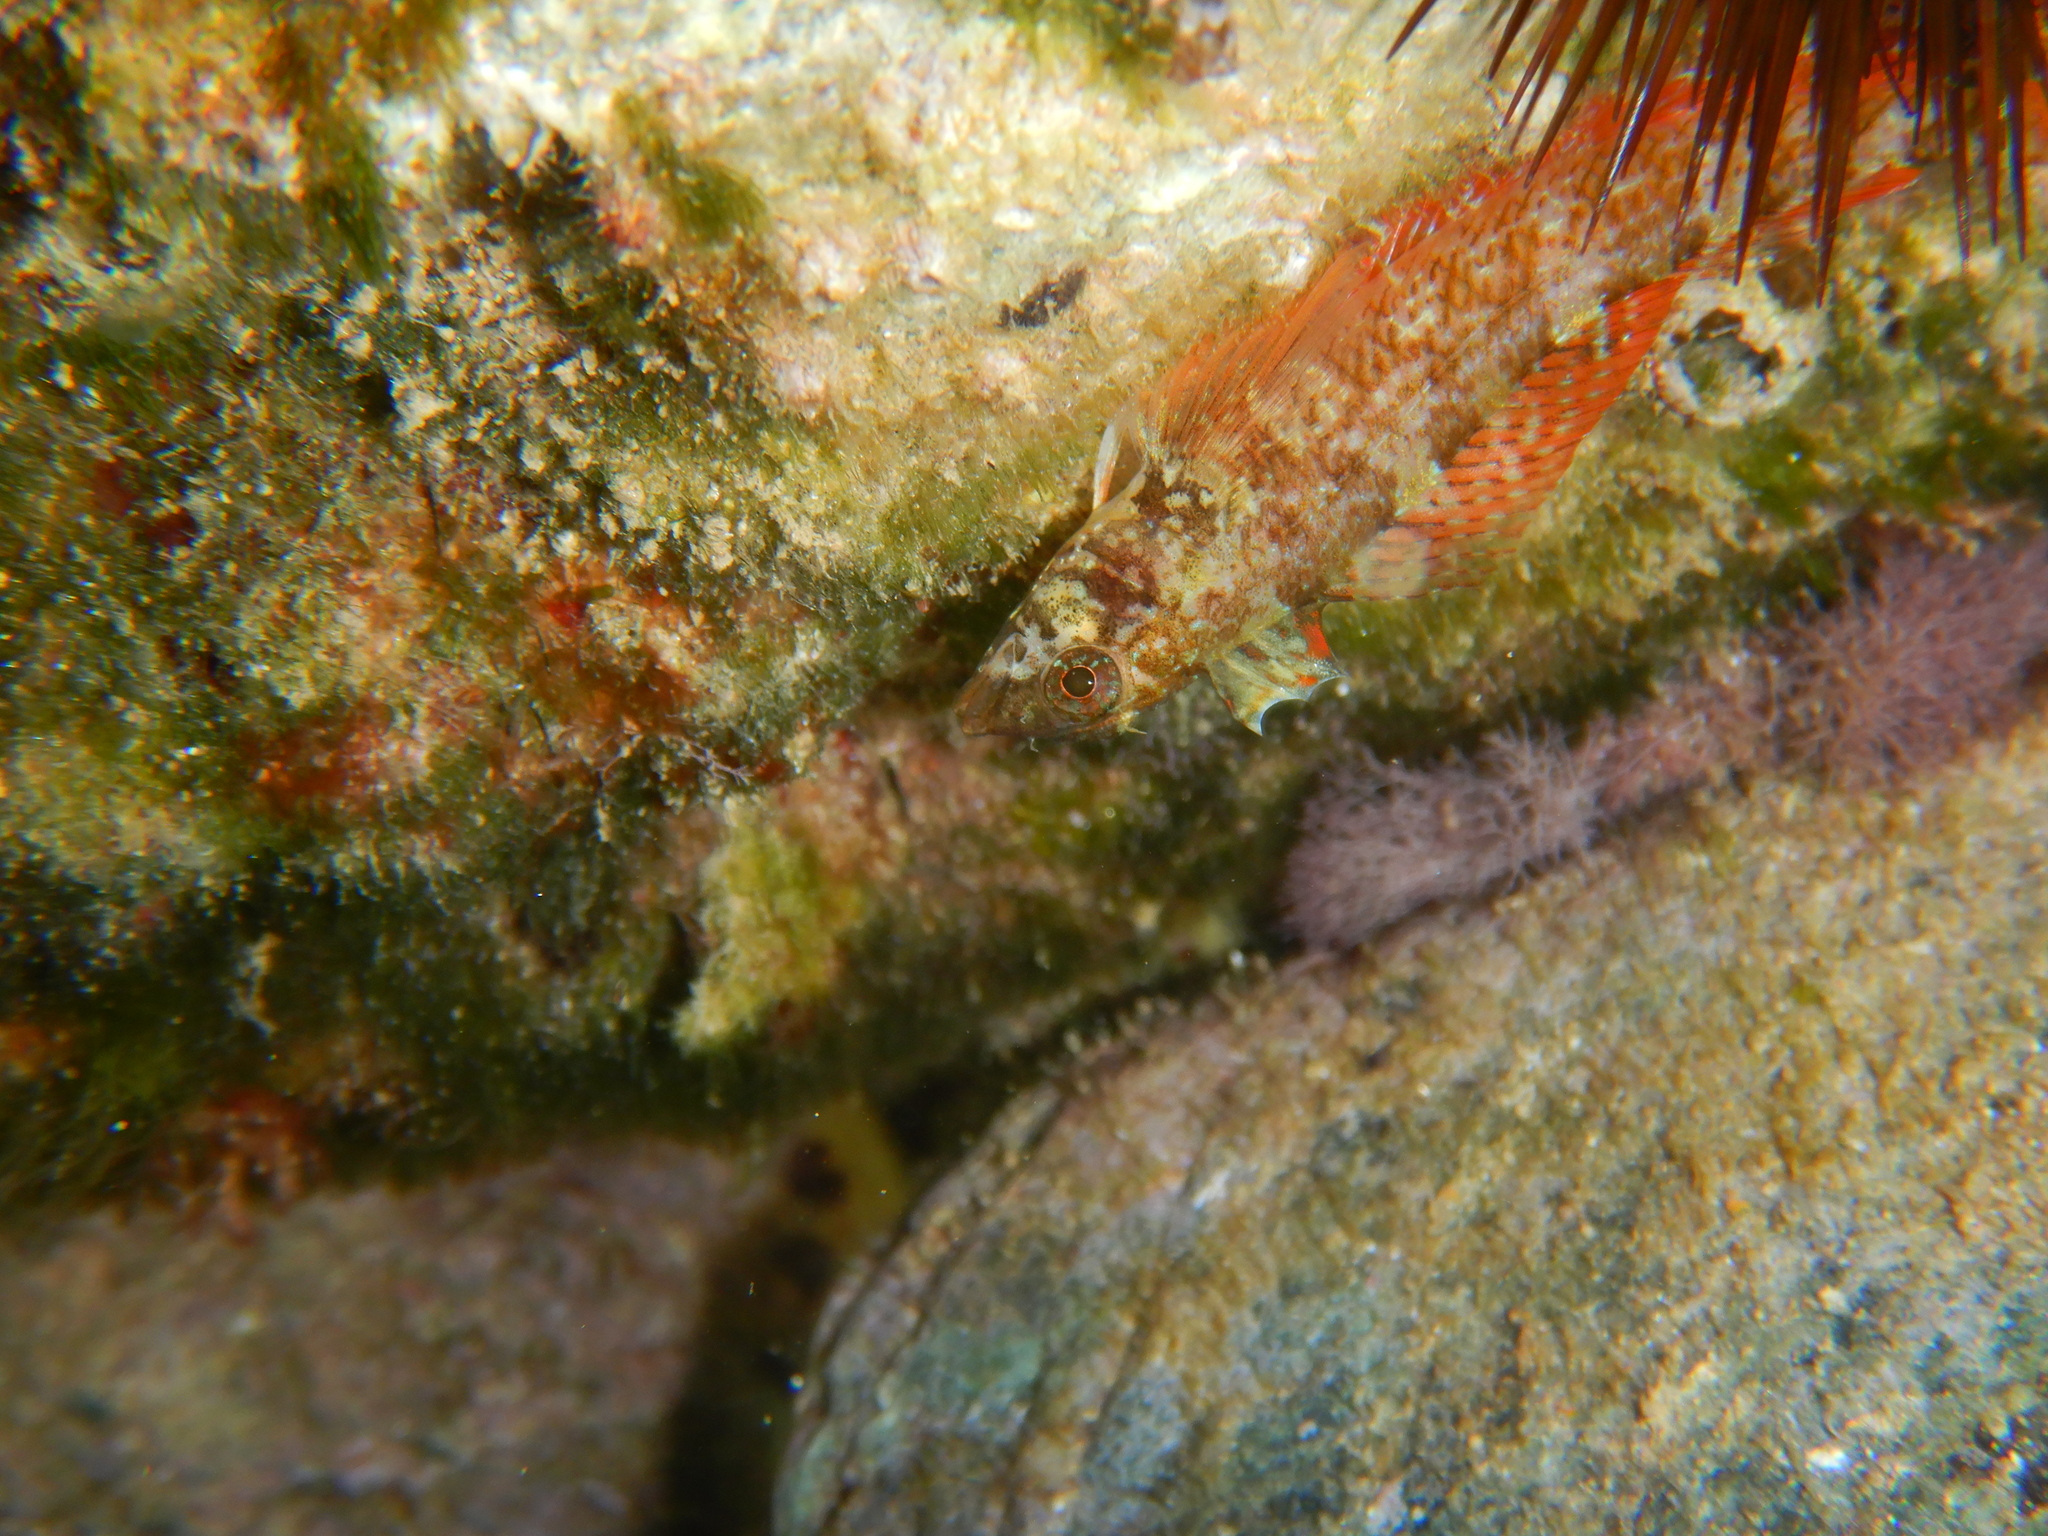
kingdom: Animalia
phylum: Chordata
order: Perciformes
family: Tripterygiidae
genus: Tripterygion
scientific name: Tripterygion tripteronotum
